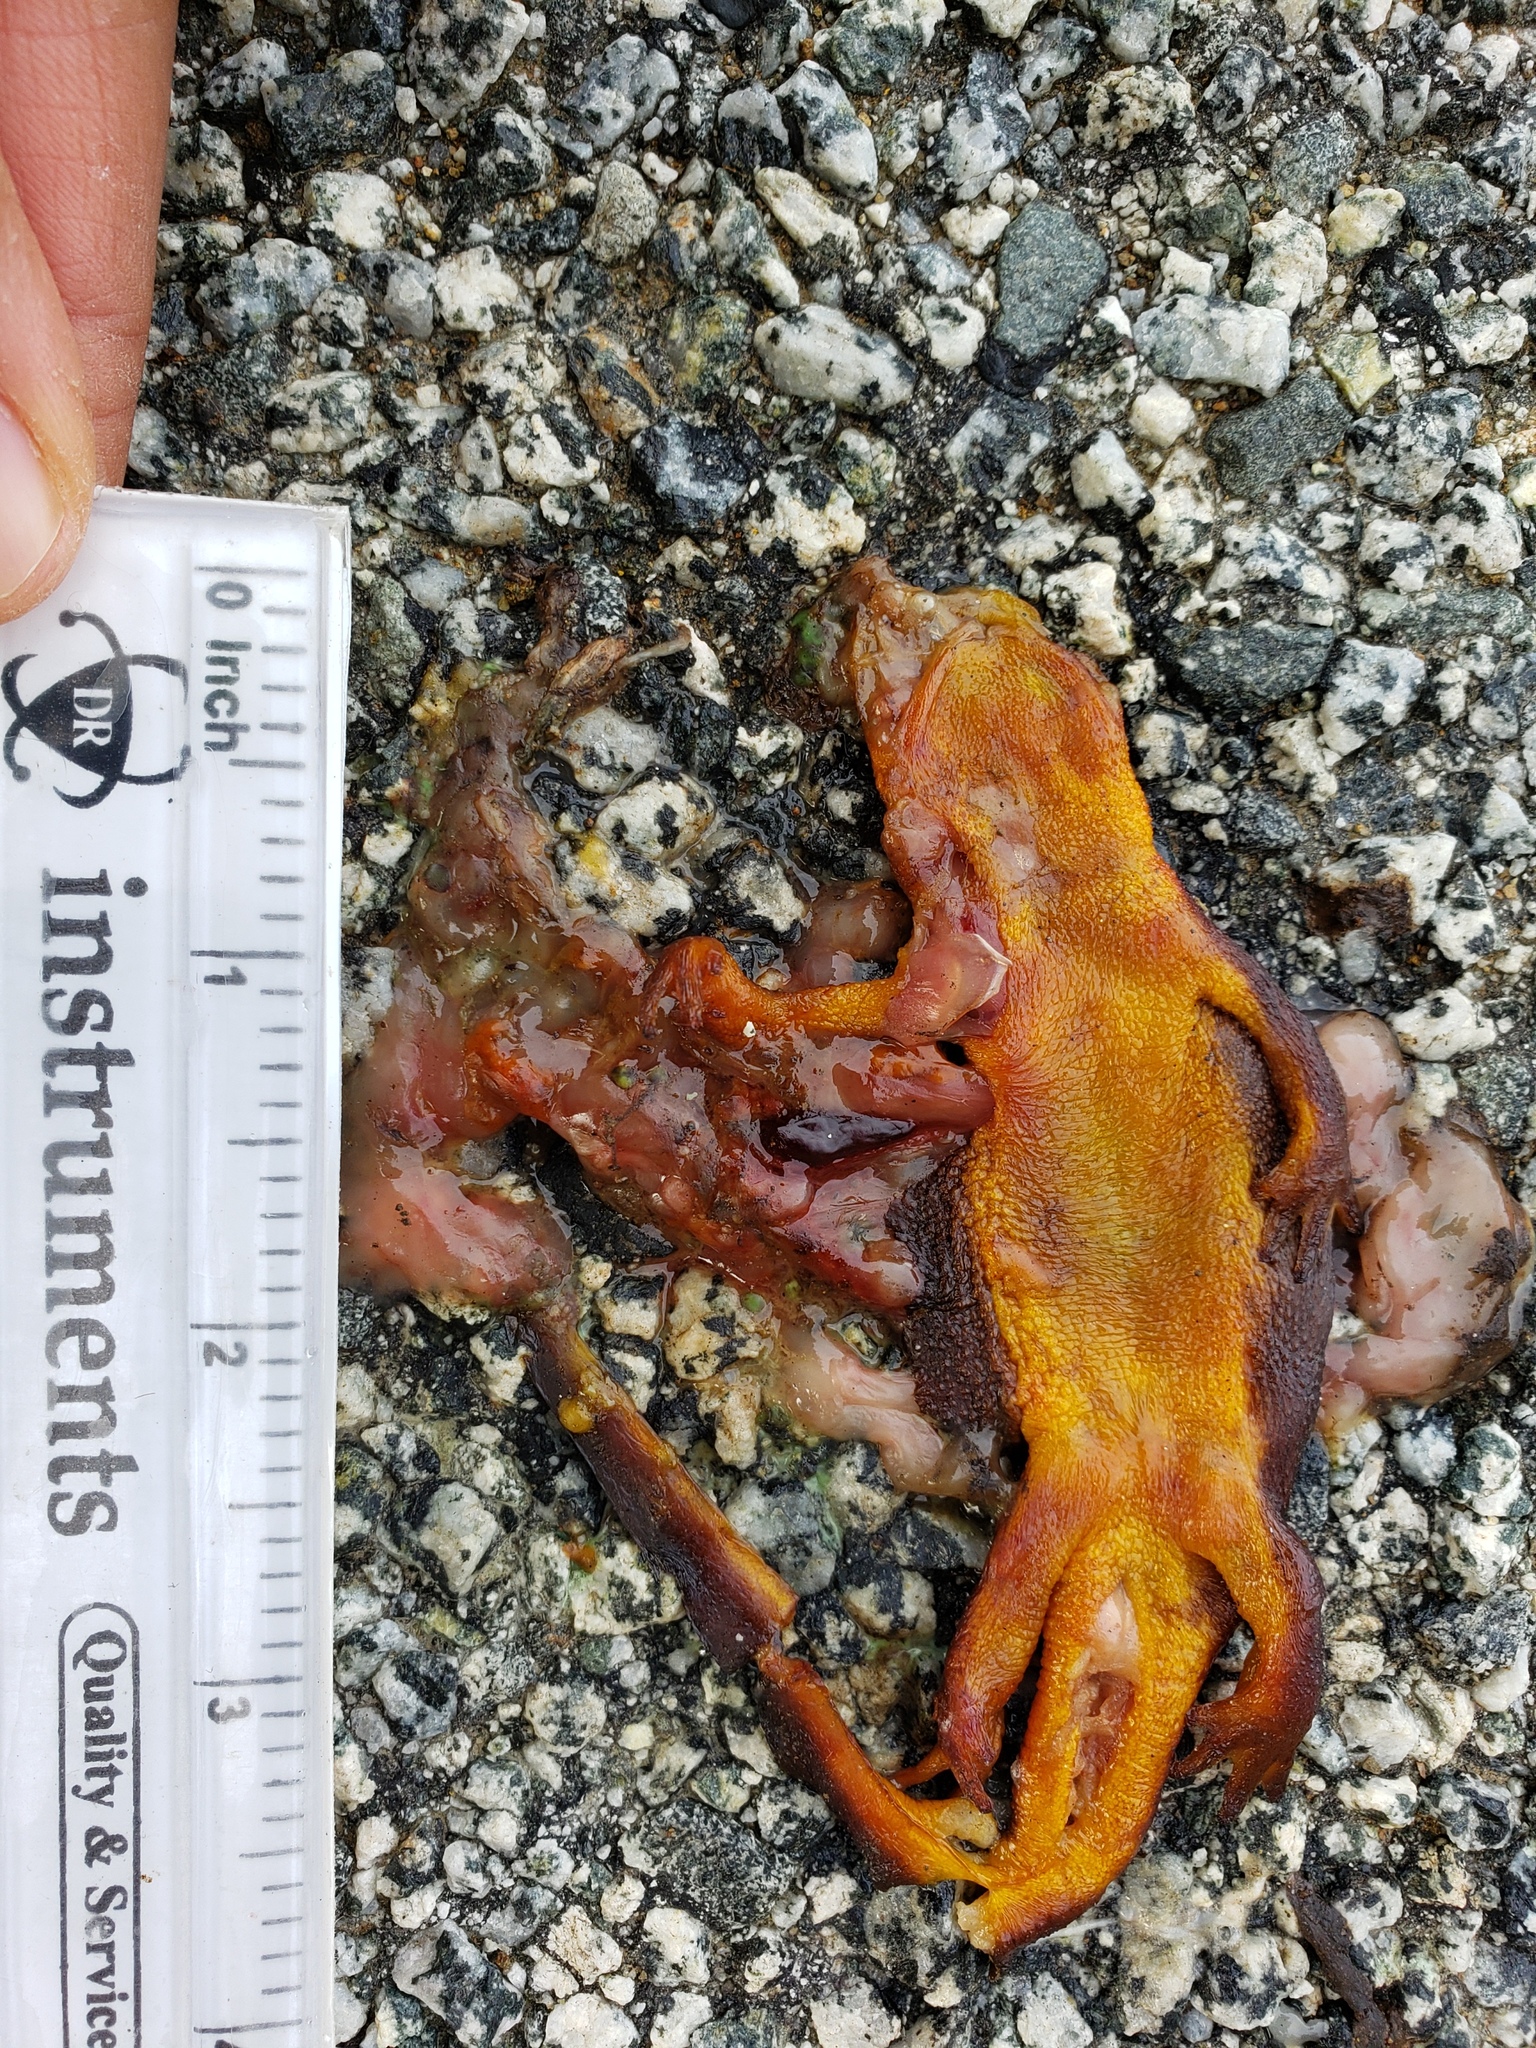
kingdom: Animalia
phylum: Chordata
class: Amphibia
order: Caudata
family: Salamandridae
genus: Taricha
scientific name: Taricha
